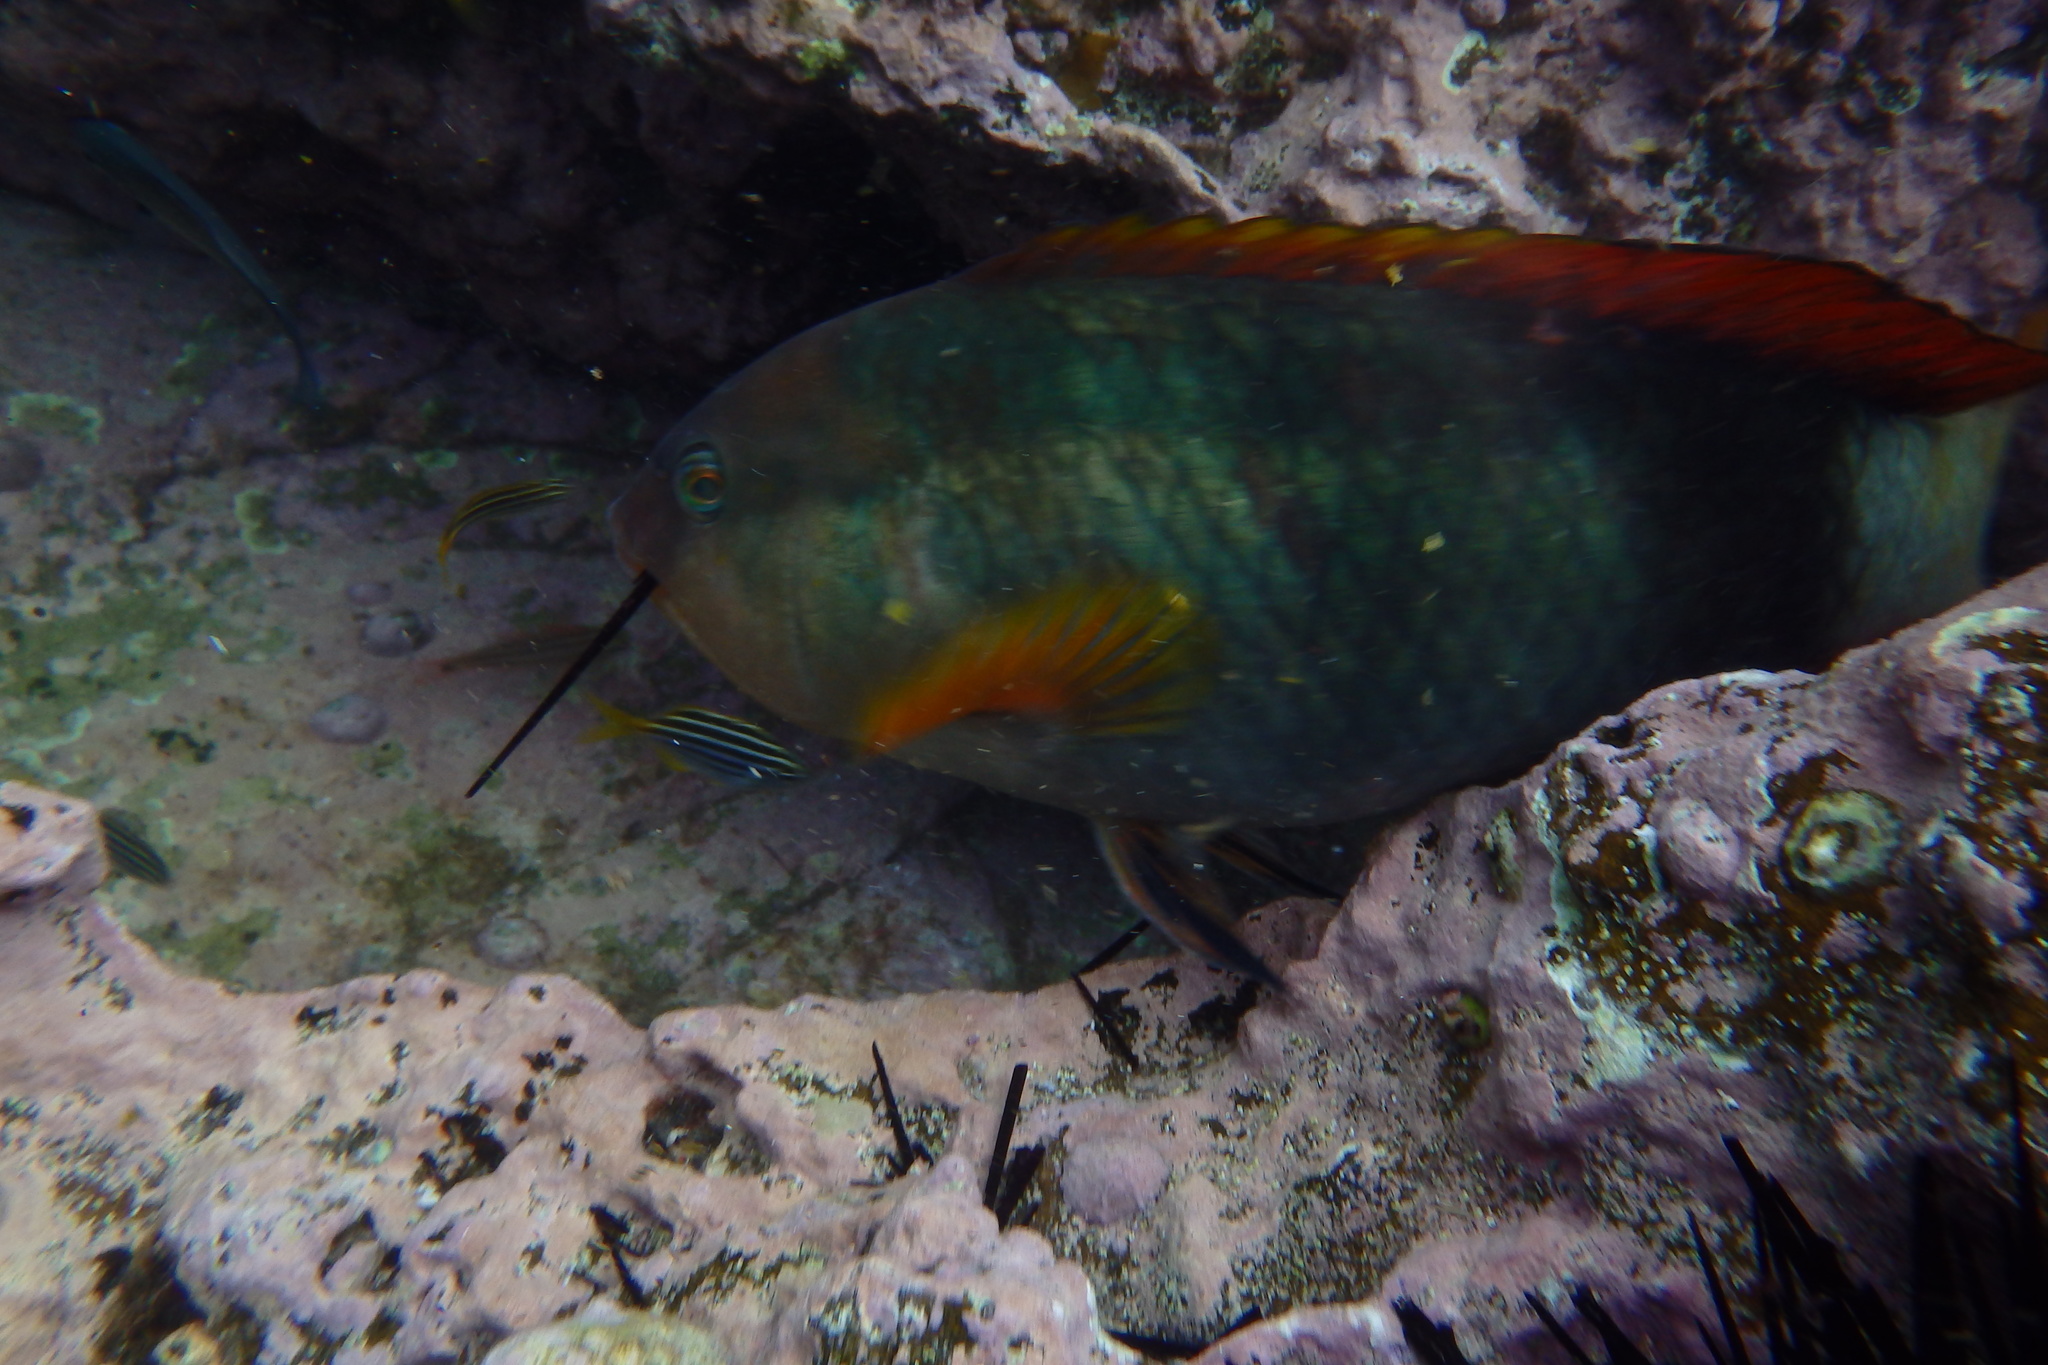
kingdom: Animalia
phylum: Chordata
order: Perciformes
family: Labridae
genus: Notolabrus
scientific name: Notolabrus gymnogenis
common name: Crimson banded wrasse
